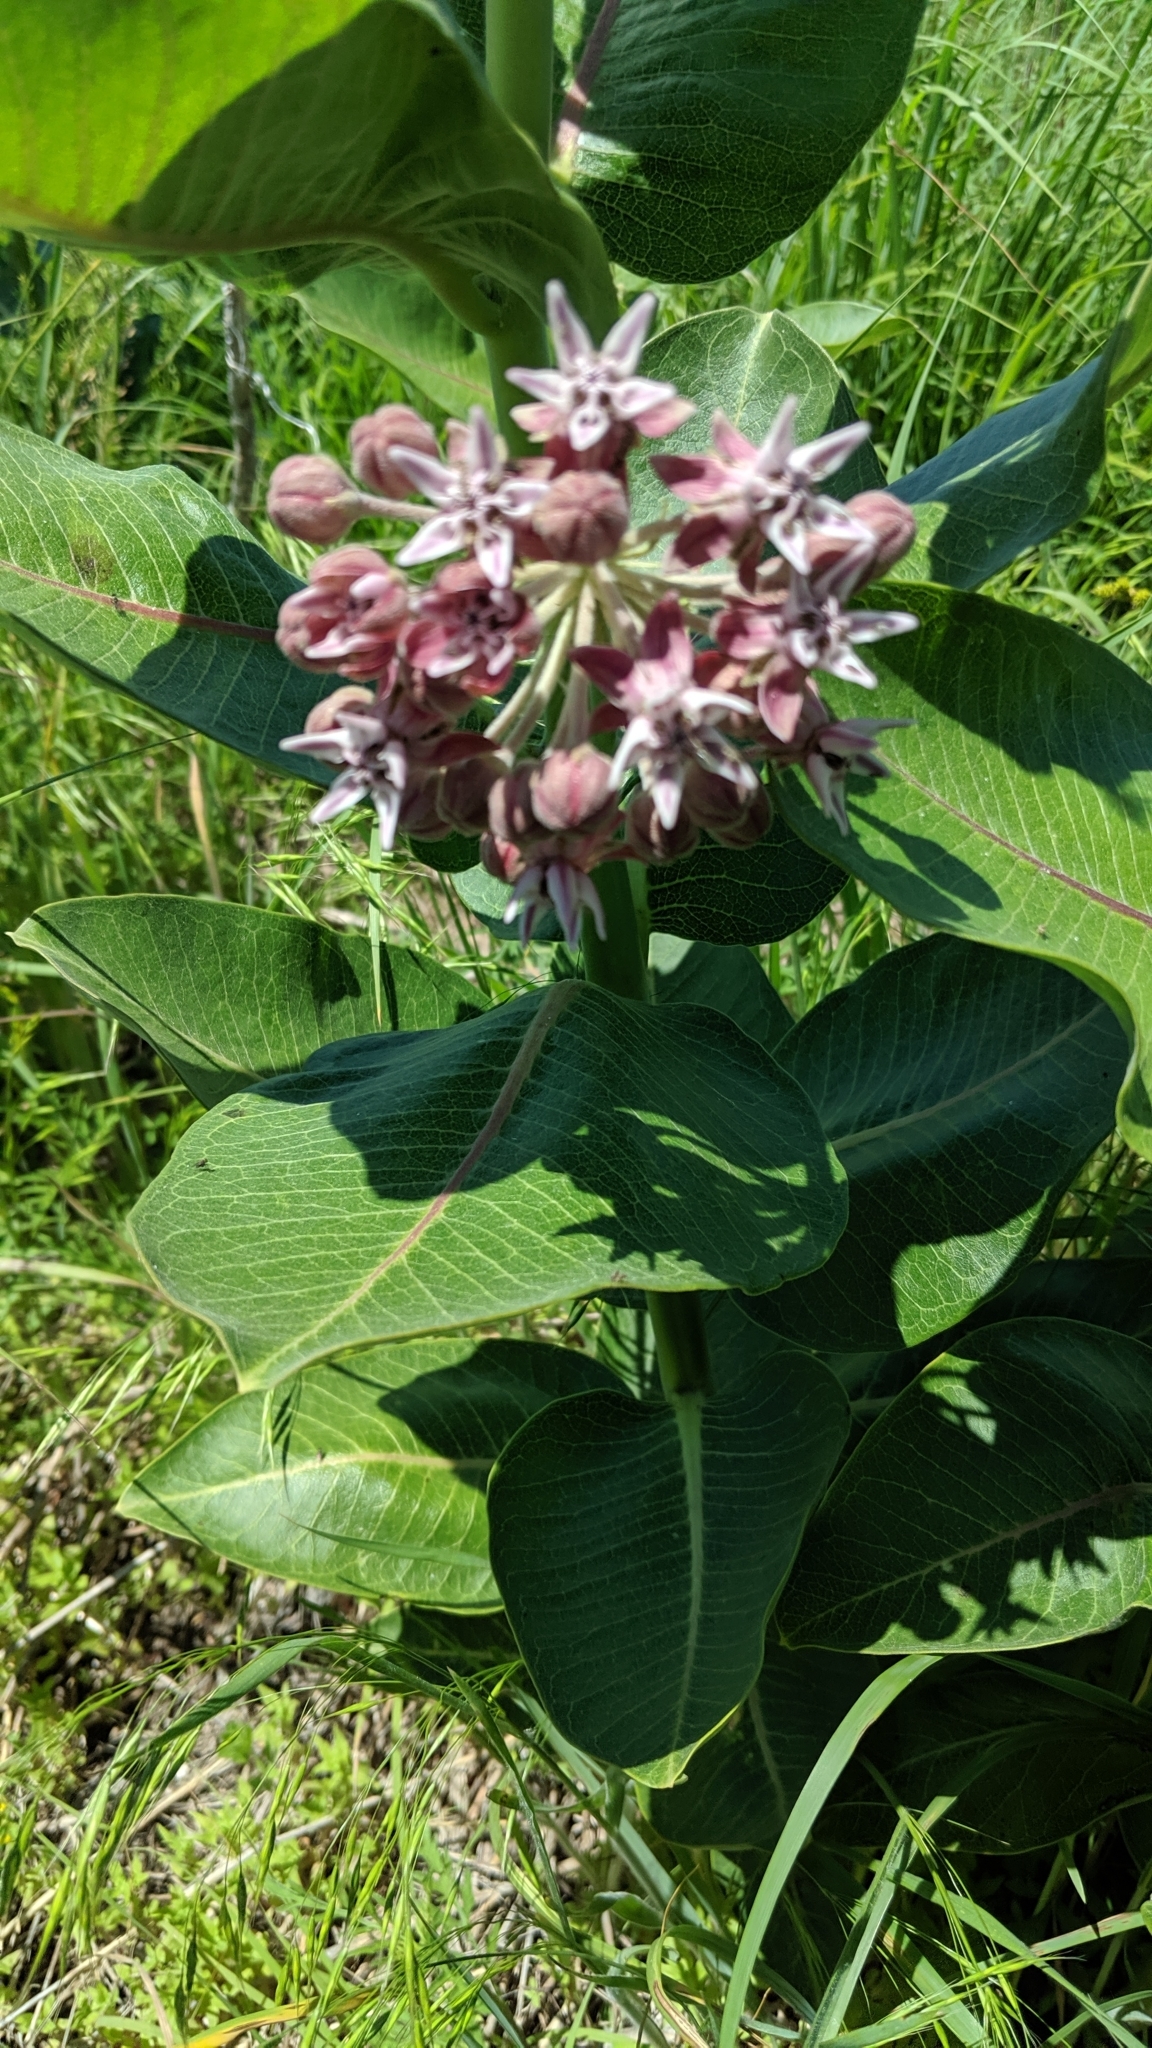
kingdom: Plantae
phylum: Tracheophyta
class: Magnoliopsida
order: Gentianales
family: Apocynaceae
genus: Asclepias
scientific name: Asclepias speciosa
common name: Showy milkweed
